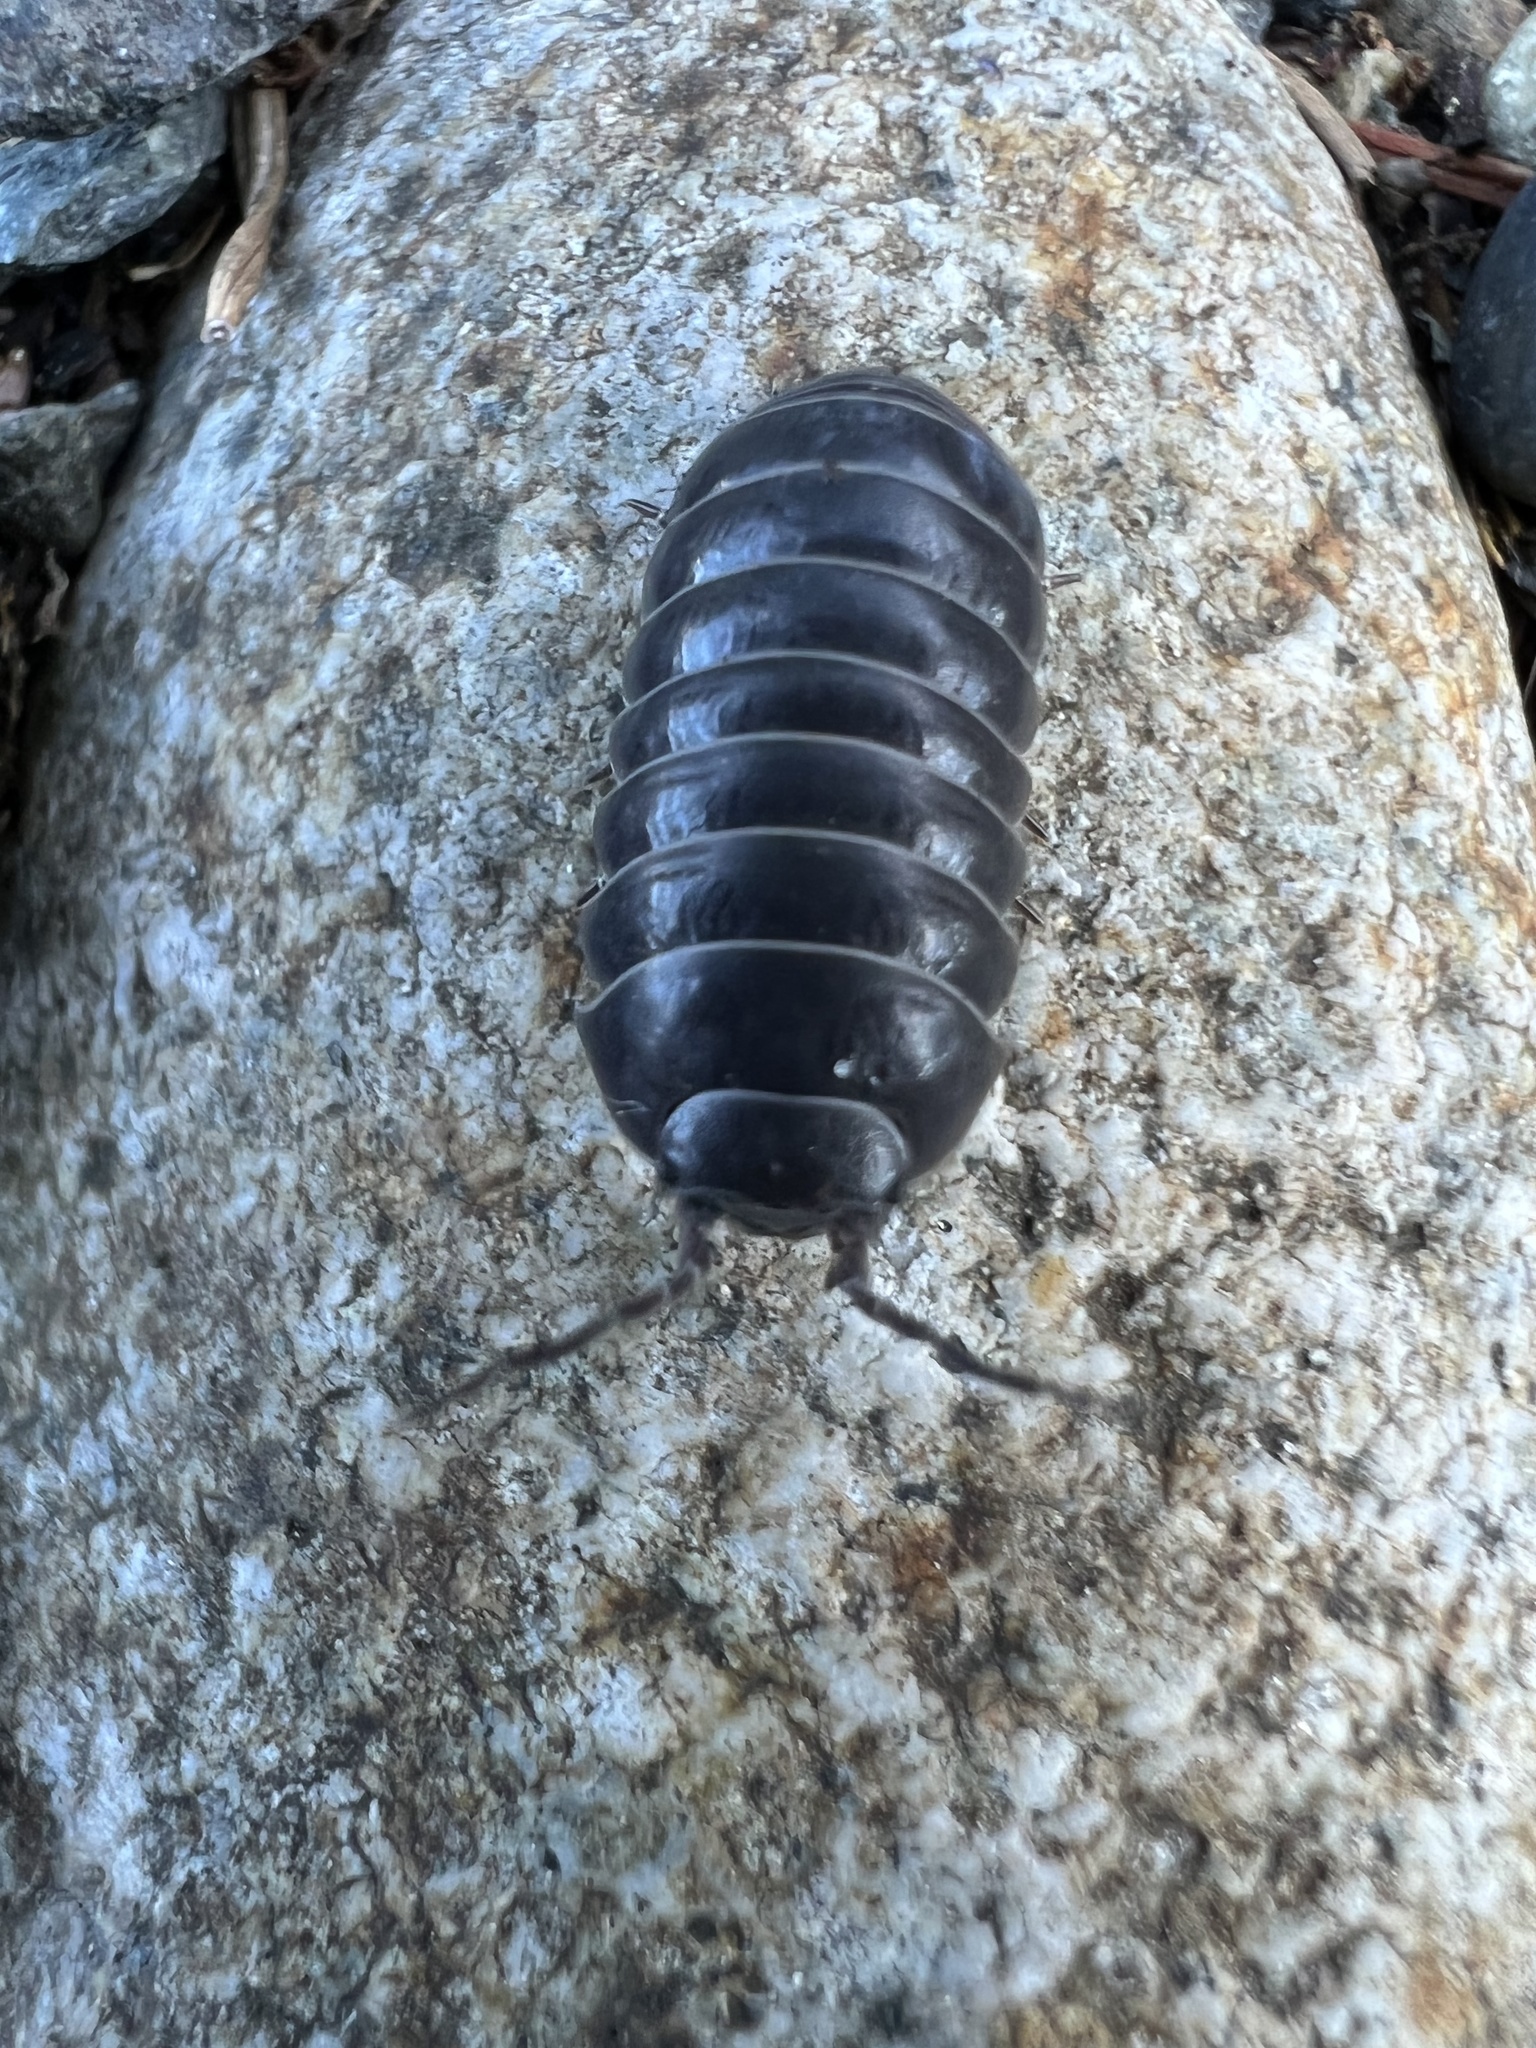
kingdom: Animalia
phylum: Arthropoda
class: Malacostraca
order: Isopoda
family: Armadillidiidae
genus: Armadillidium
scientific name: Armadillidium vulgare
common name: Common pill woodlouse
